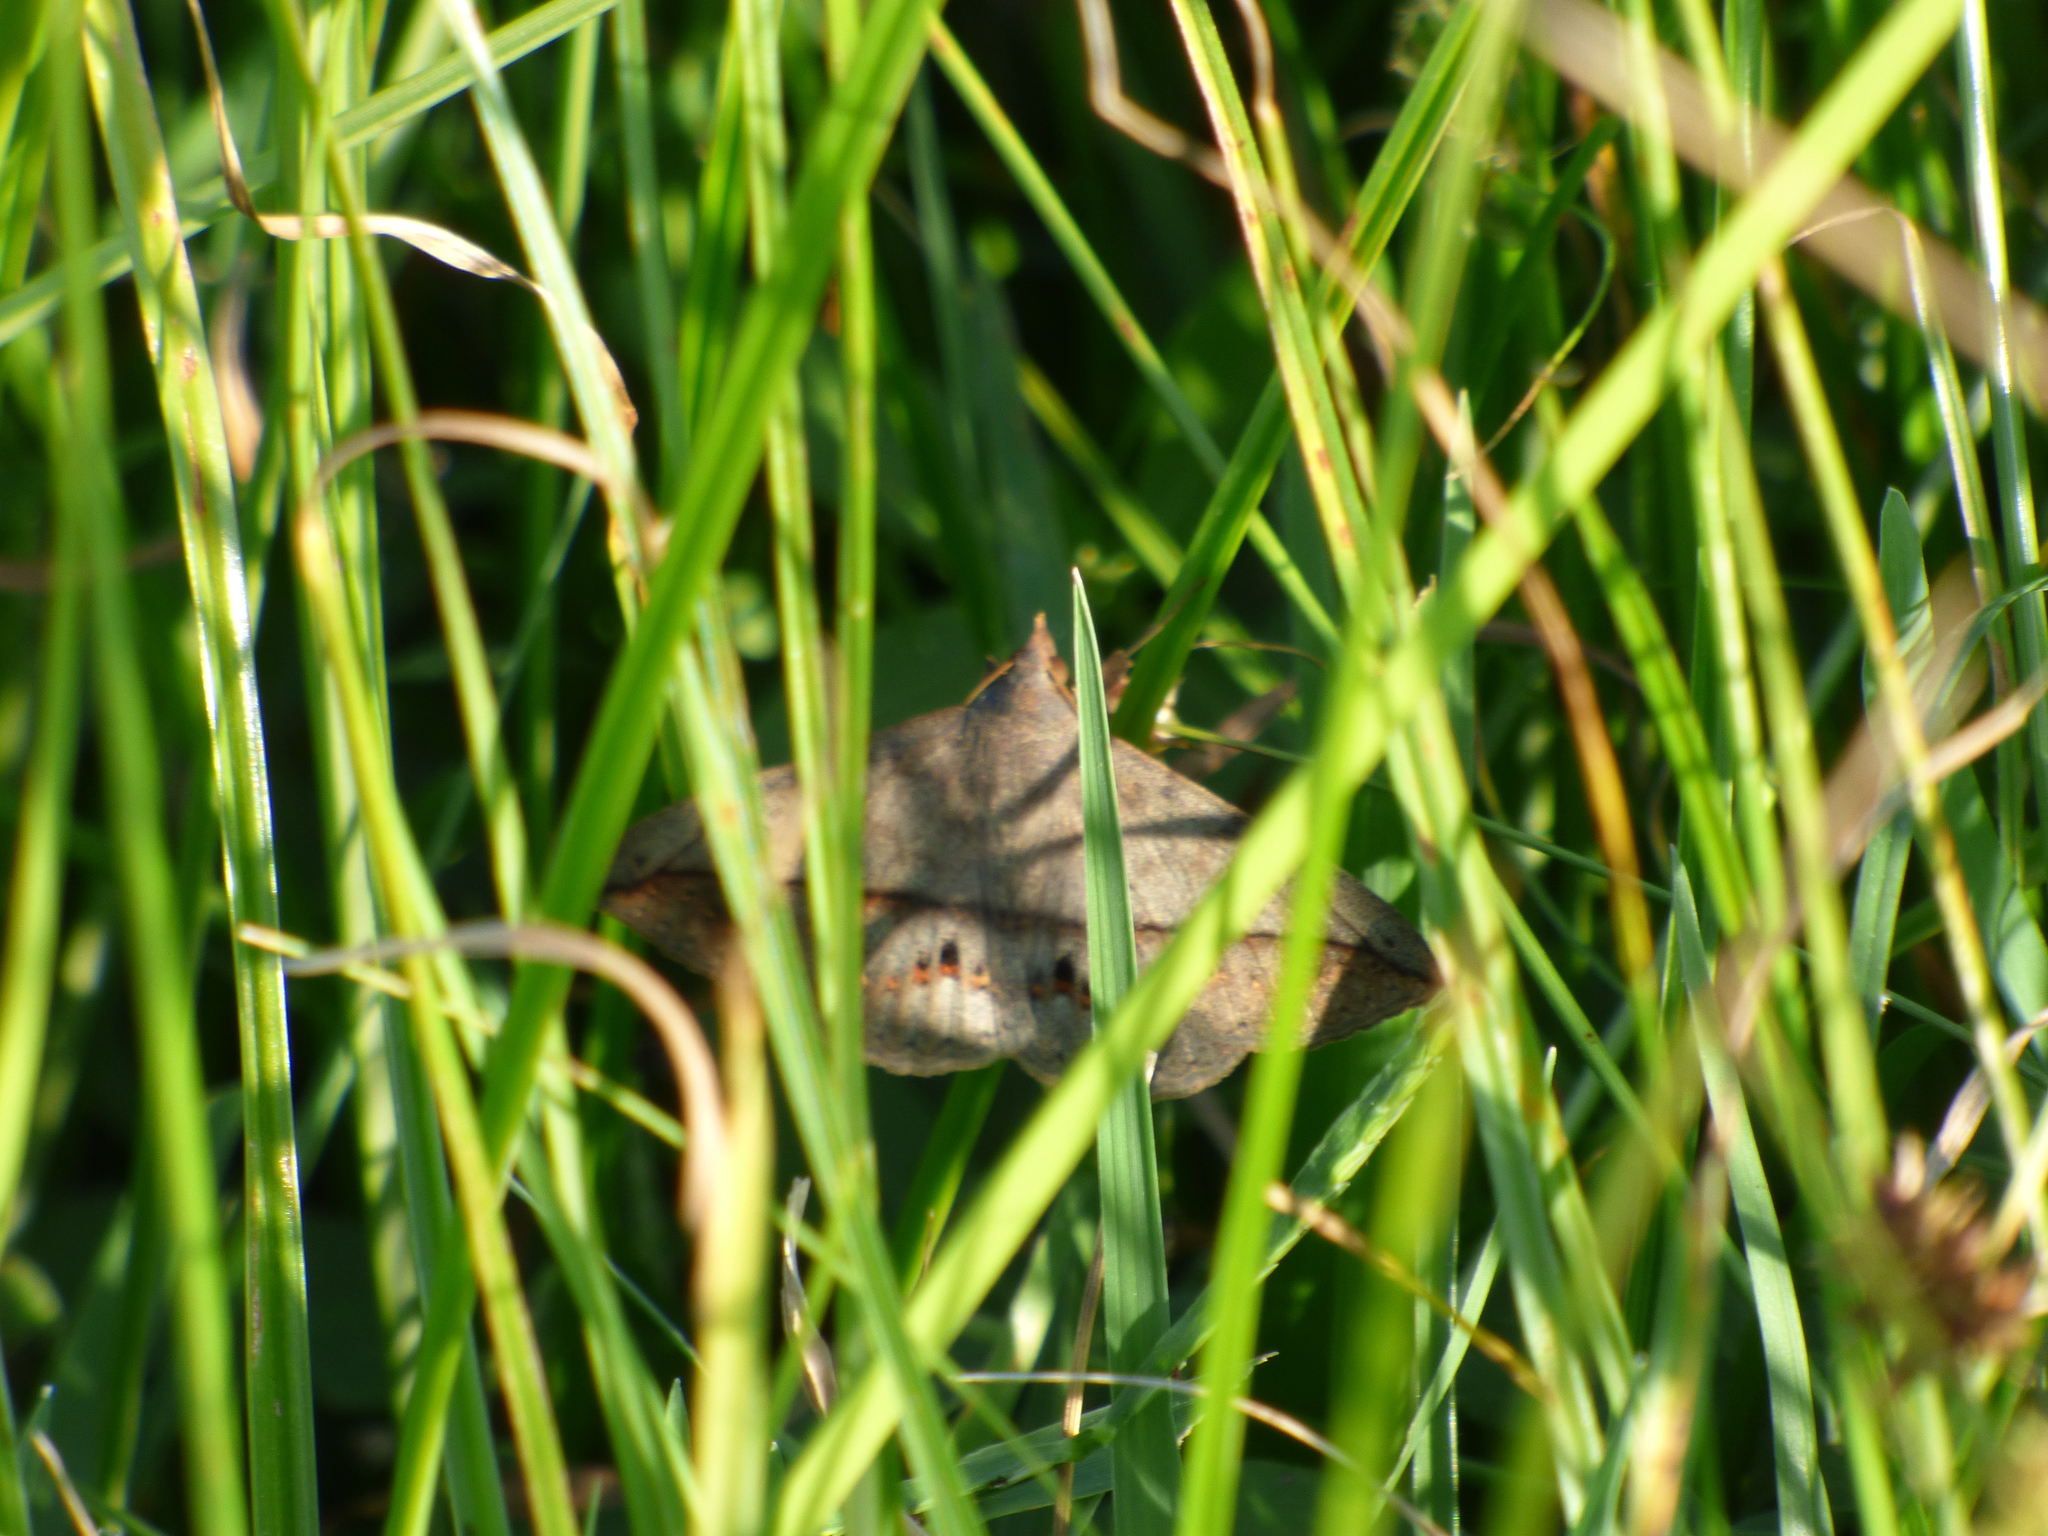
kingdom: Animalia
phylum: Arthropoda
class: Insecta
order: Lepidoptera
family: Erebidae
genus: Anticarsia
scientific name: Anticarsia gemmatalis
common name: Cutworm moth
